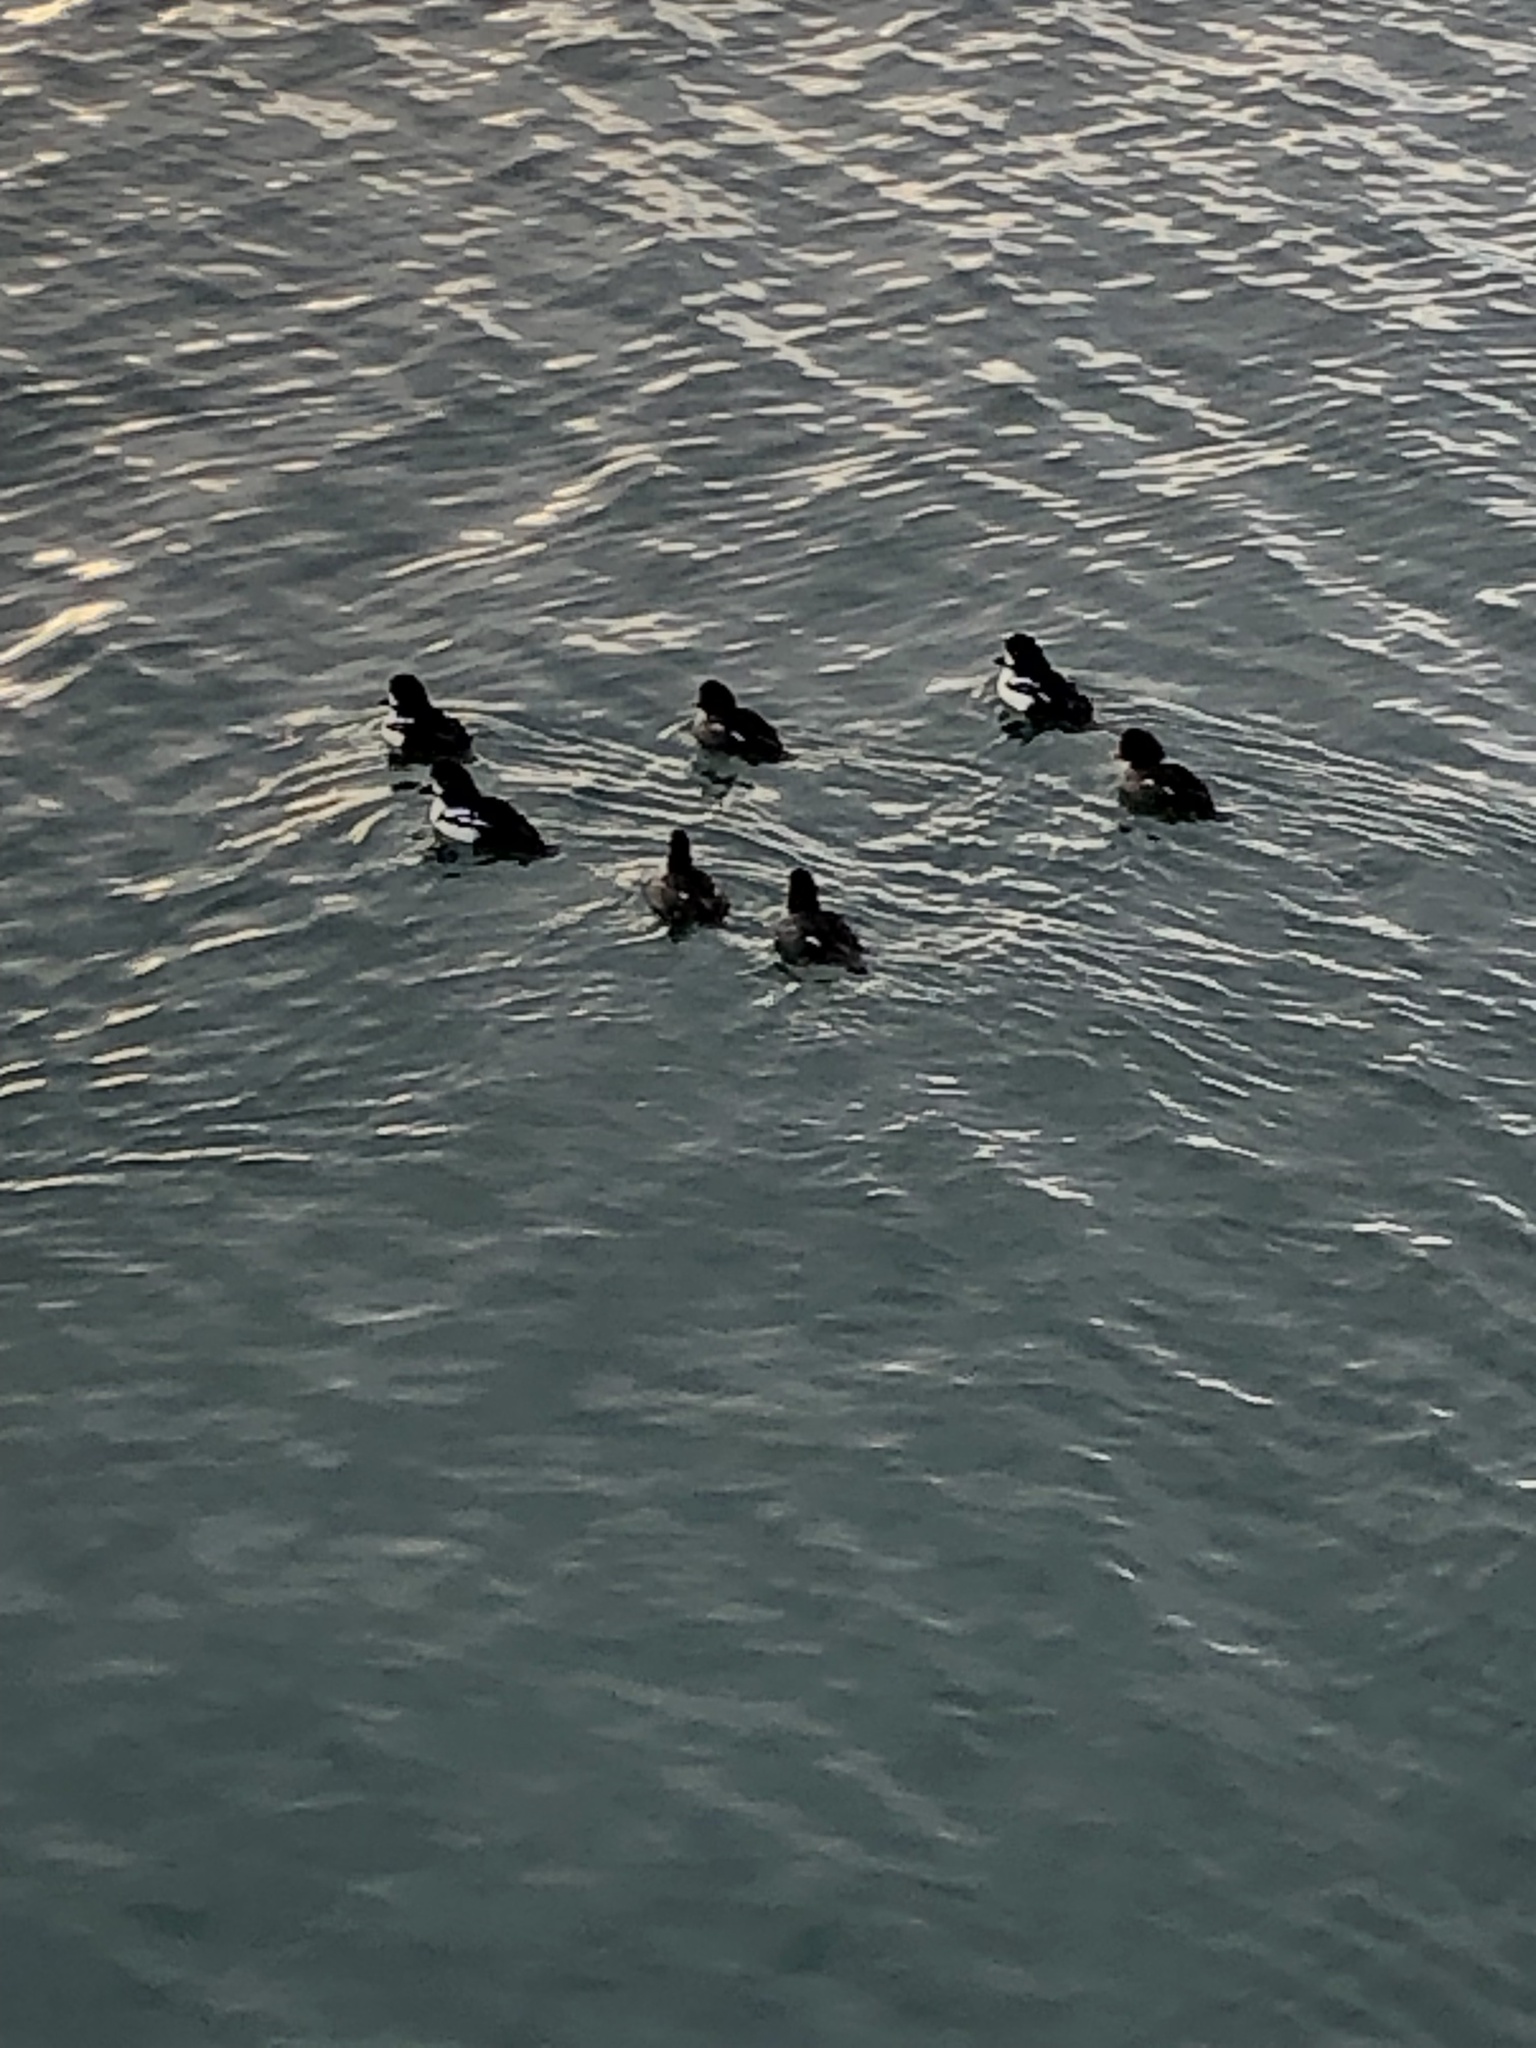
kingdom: Animalia
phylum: Chordata
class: Aves
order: Anseriformes
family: Anatidae
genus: Bucephala
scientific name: Bucephala islandica
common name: Barrow's goldeneye
